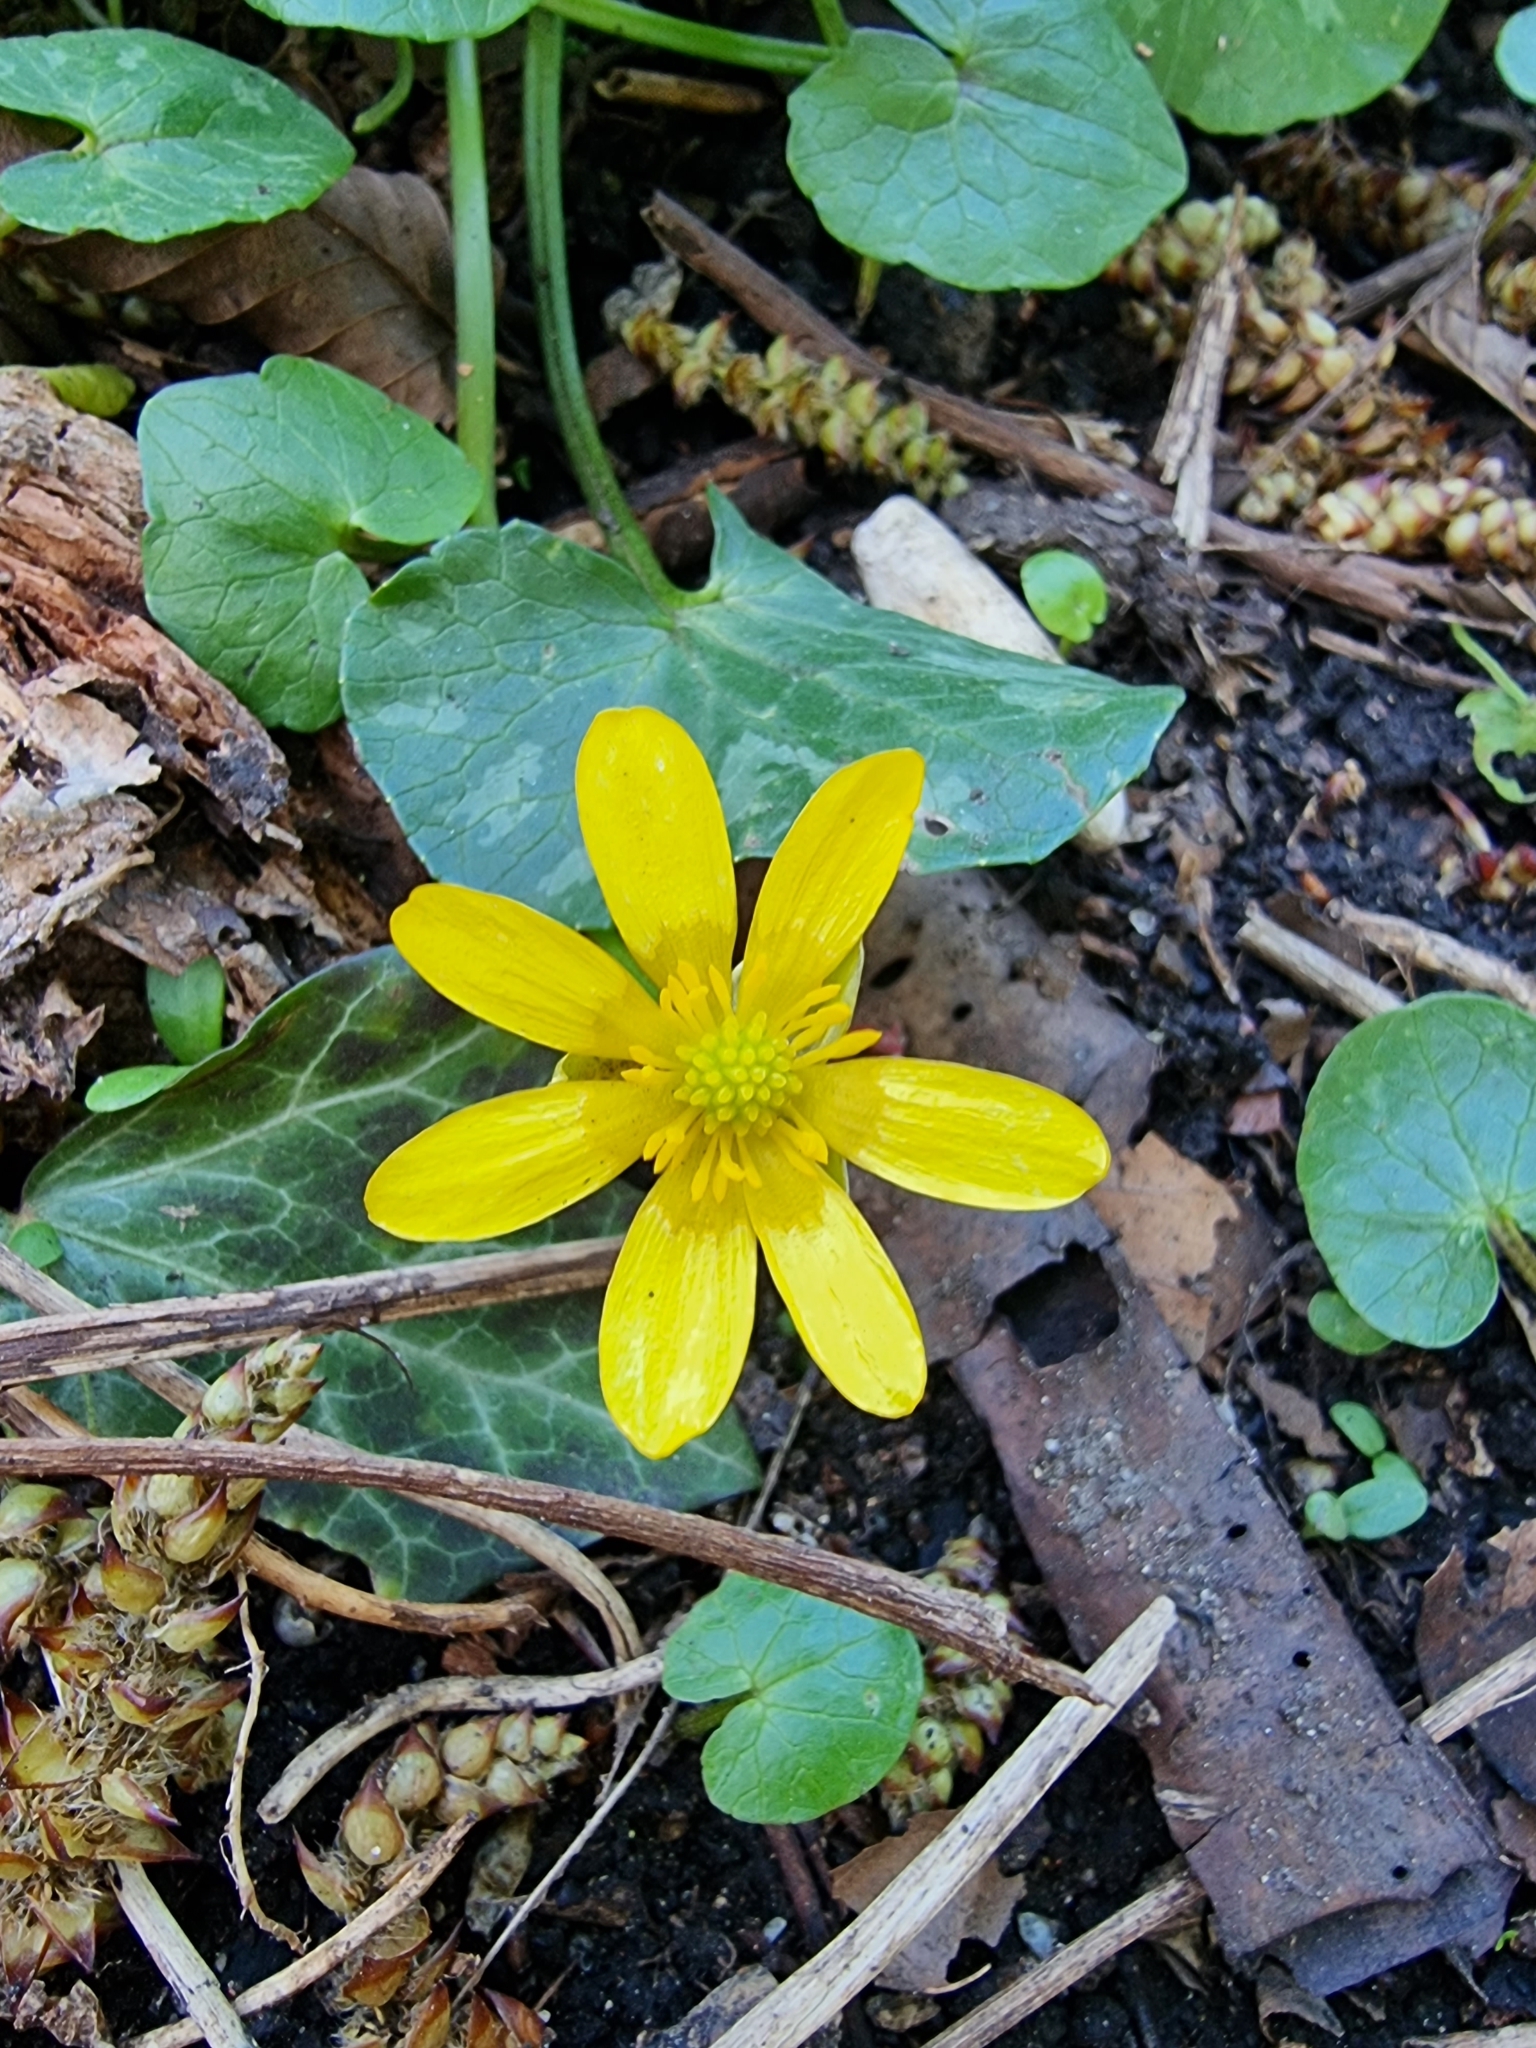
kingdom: Plantae
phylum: Tracheophyta
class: Magnoliopsida
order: Ranunculales
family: Ranunculaceae
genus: Ficaria
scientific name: Ficaria verna
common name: Lesser celandine
